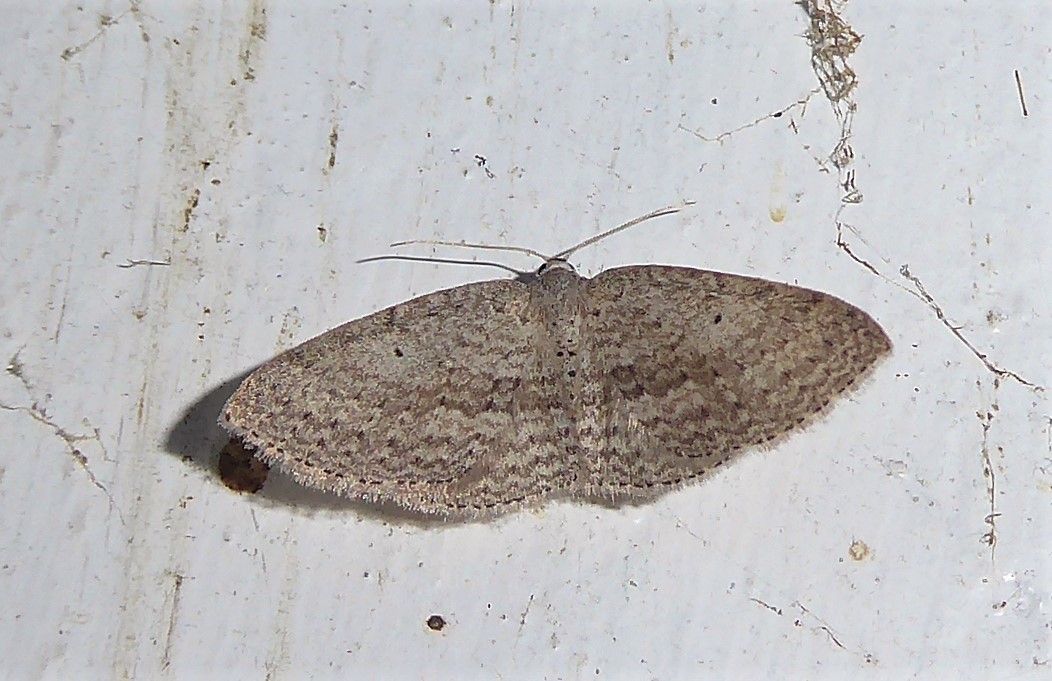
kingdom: Animalia
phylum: Arthropoda
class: Insecta
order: Lepidoptera
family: Geometridae
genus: Poecilasthena
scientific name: Poecilasthena schistaria
